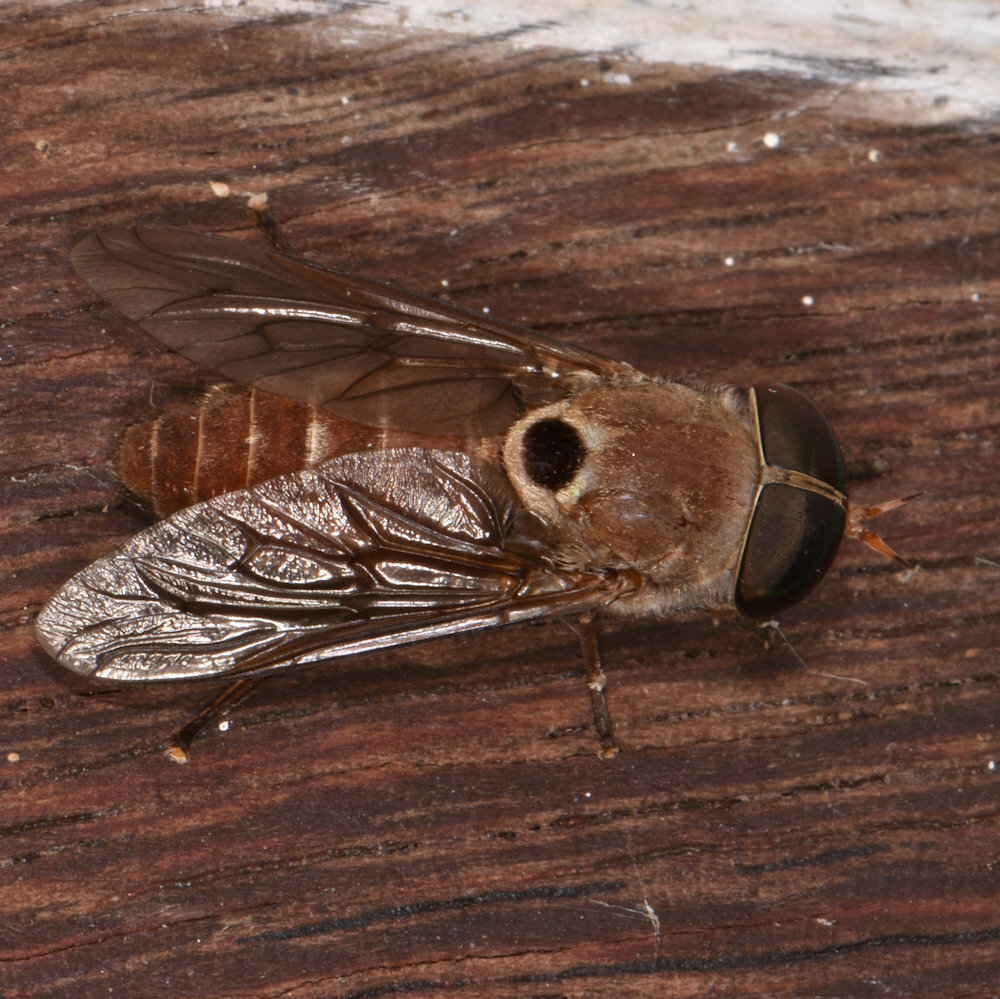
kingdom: Animalia
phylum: Arthropoda
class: Insecta
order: Diptera
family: Tabanidae
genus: Tabanus
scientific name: Tabanus albocirculus
